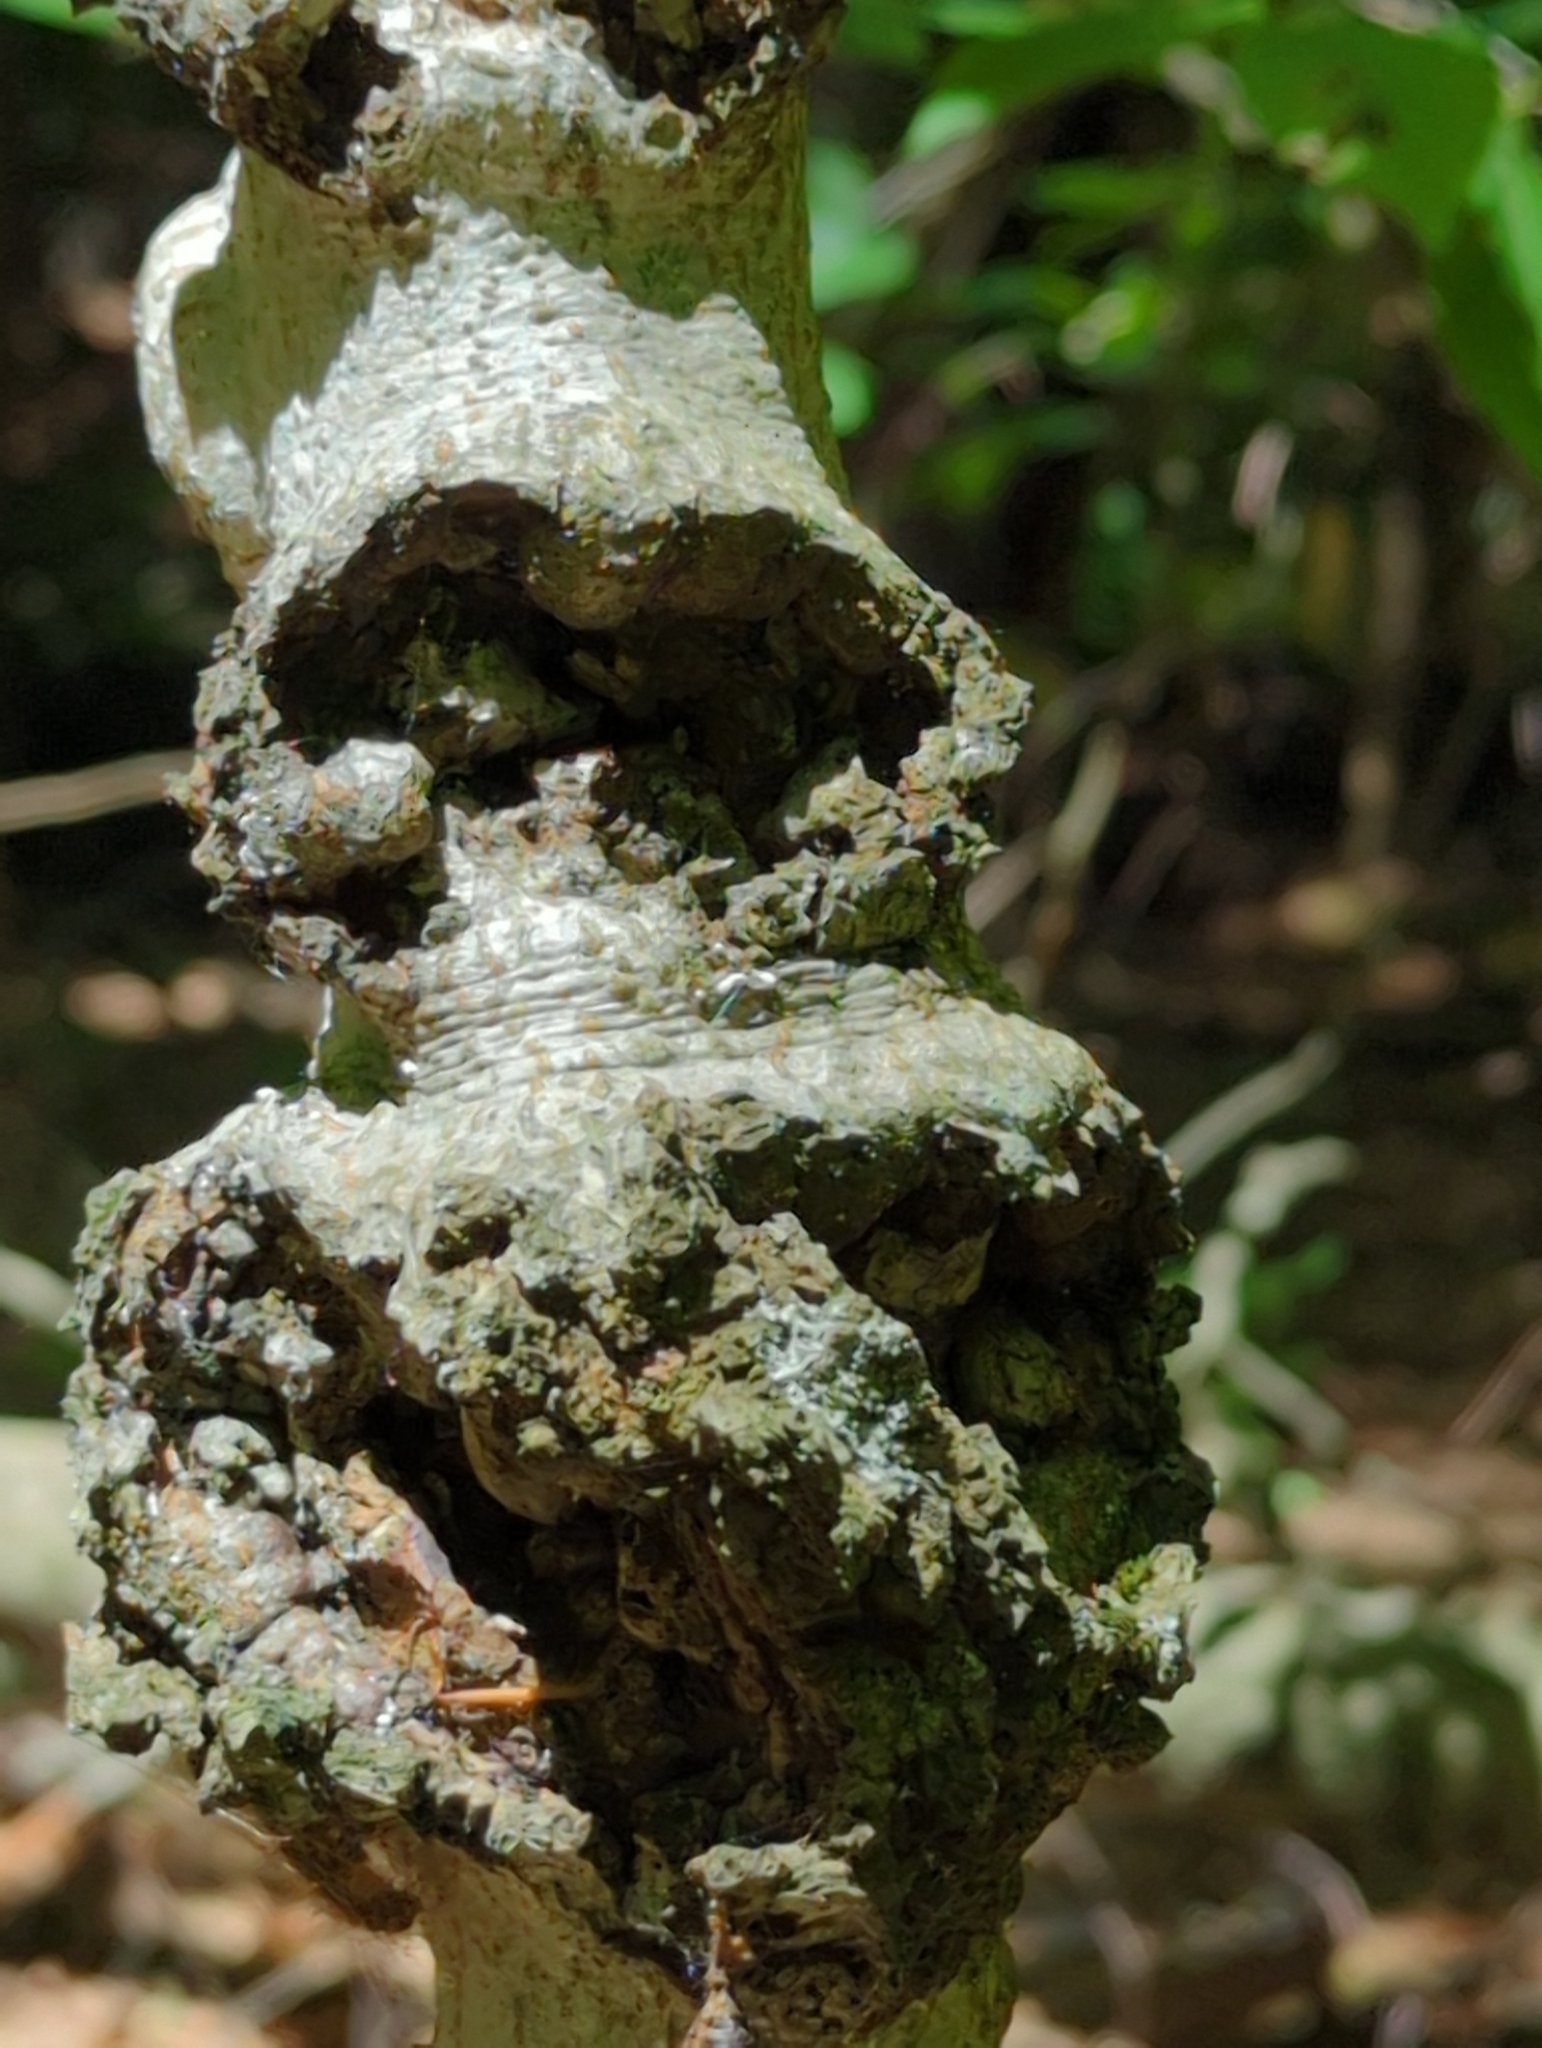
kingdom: Fungi
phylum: Ascomycota
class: Sordariomycetes
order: Hypocreales
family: Nectriaceae
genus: Neonectria
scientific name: Neonectria ditissima
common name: Apple canker
